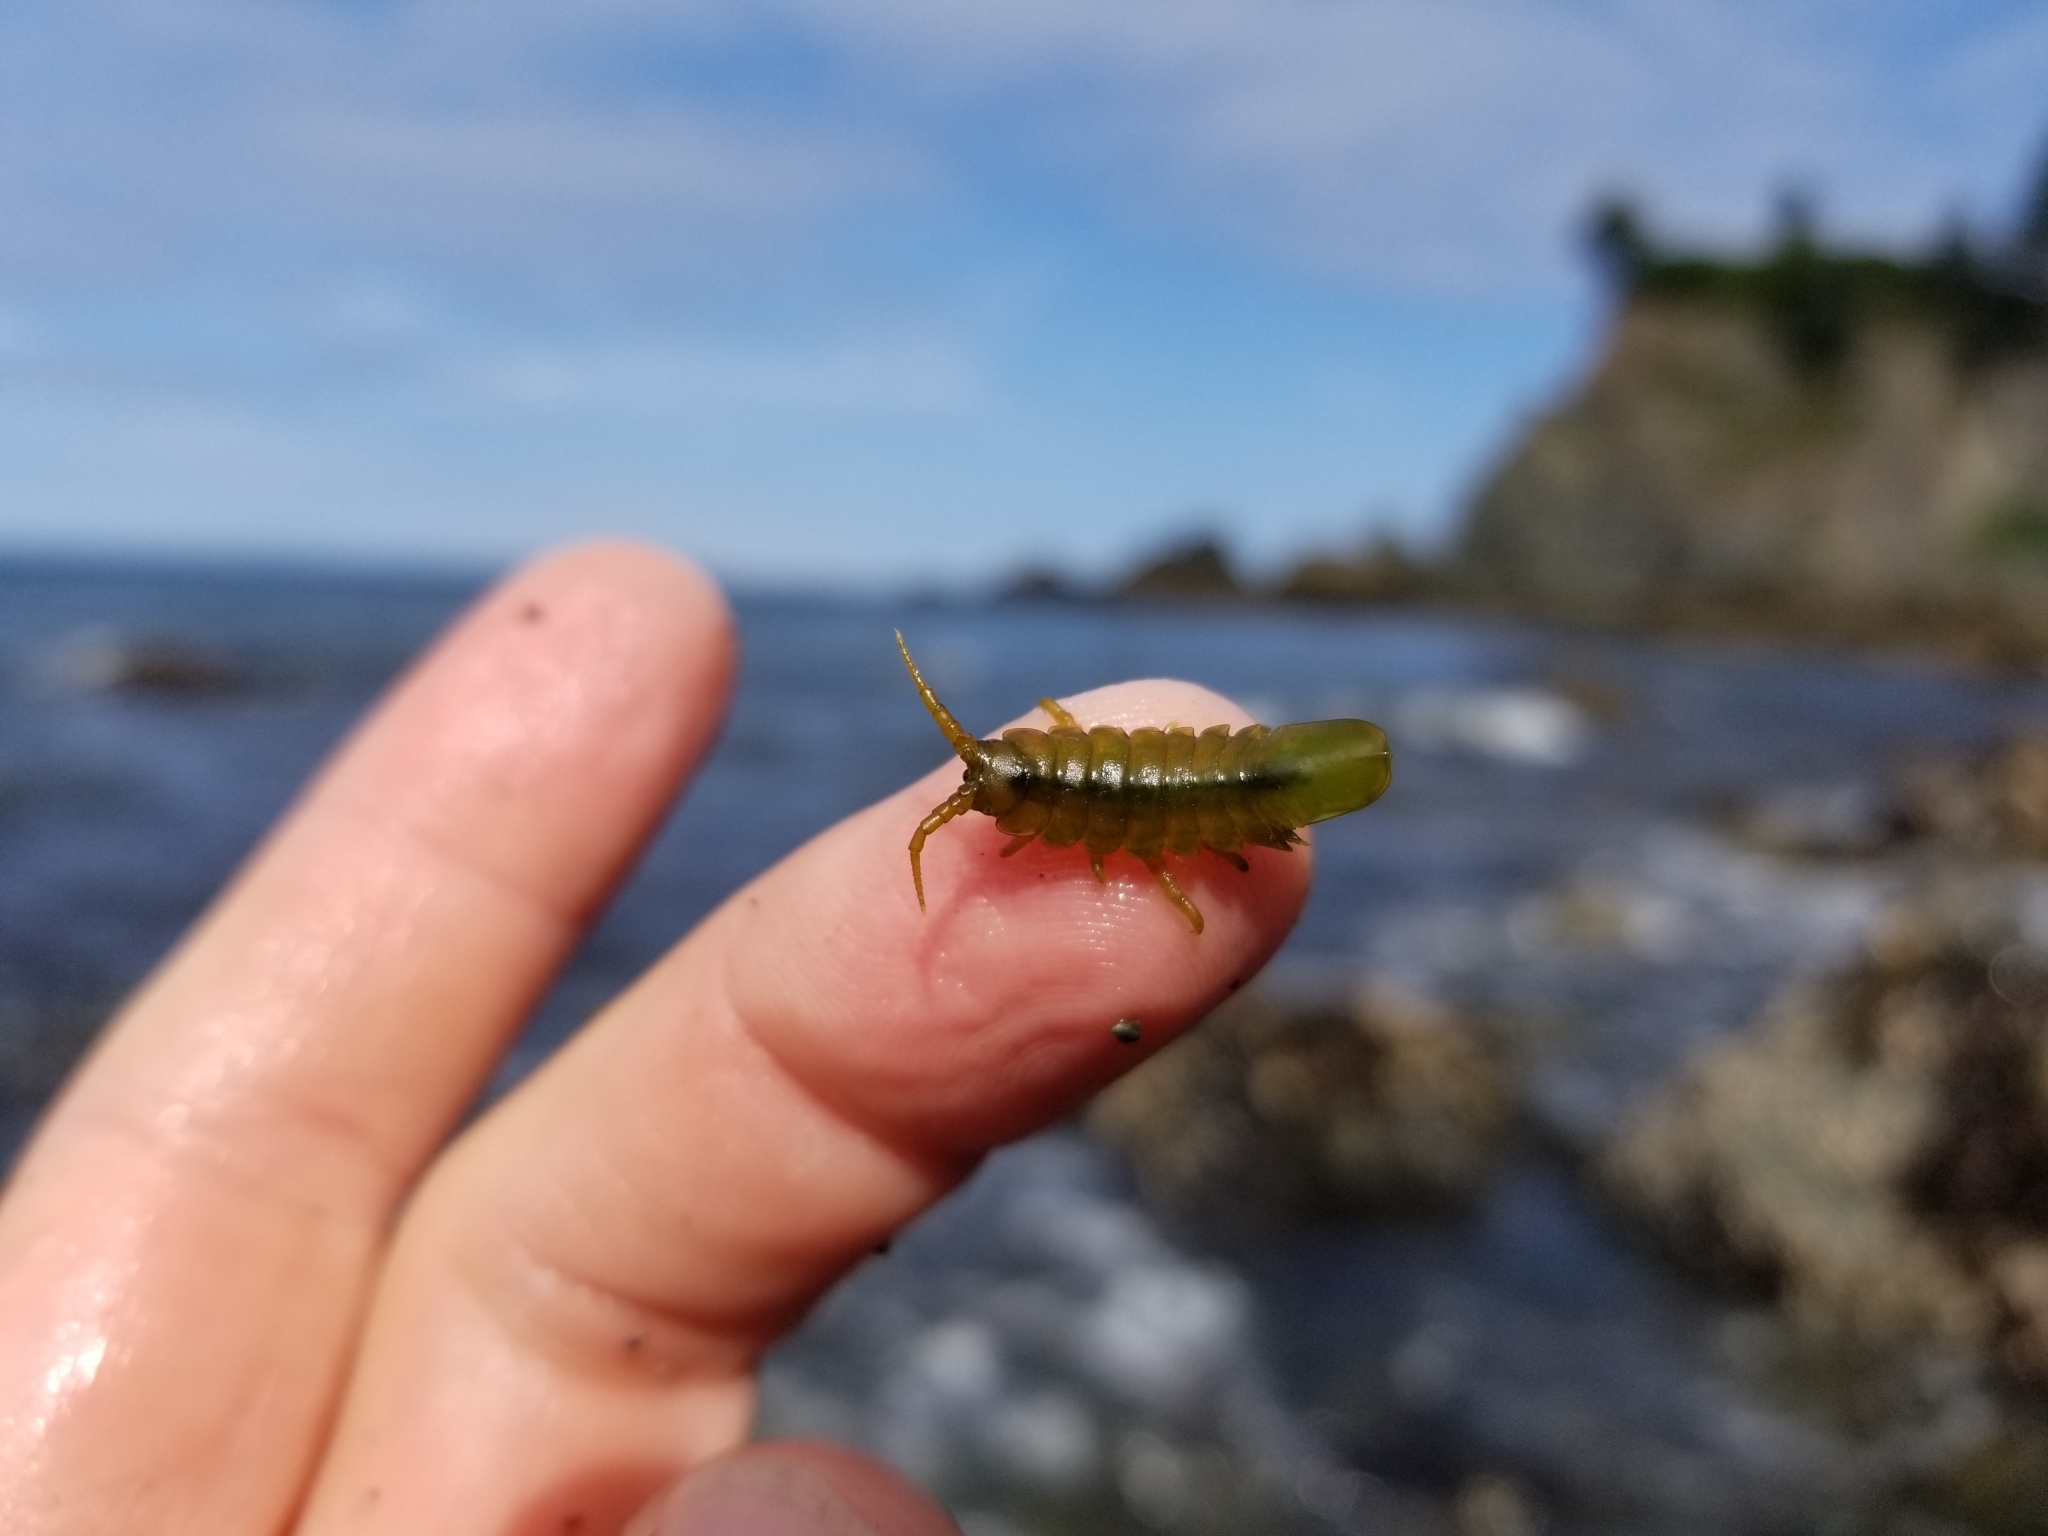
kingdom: Animalia
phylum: Arthropoda
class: Malacostraca
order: Isopoda
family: Idoteidae
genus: Pentidotea
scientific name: Pentidotea wosnesenskii
